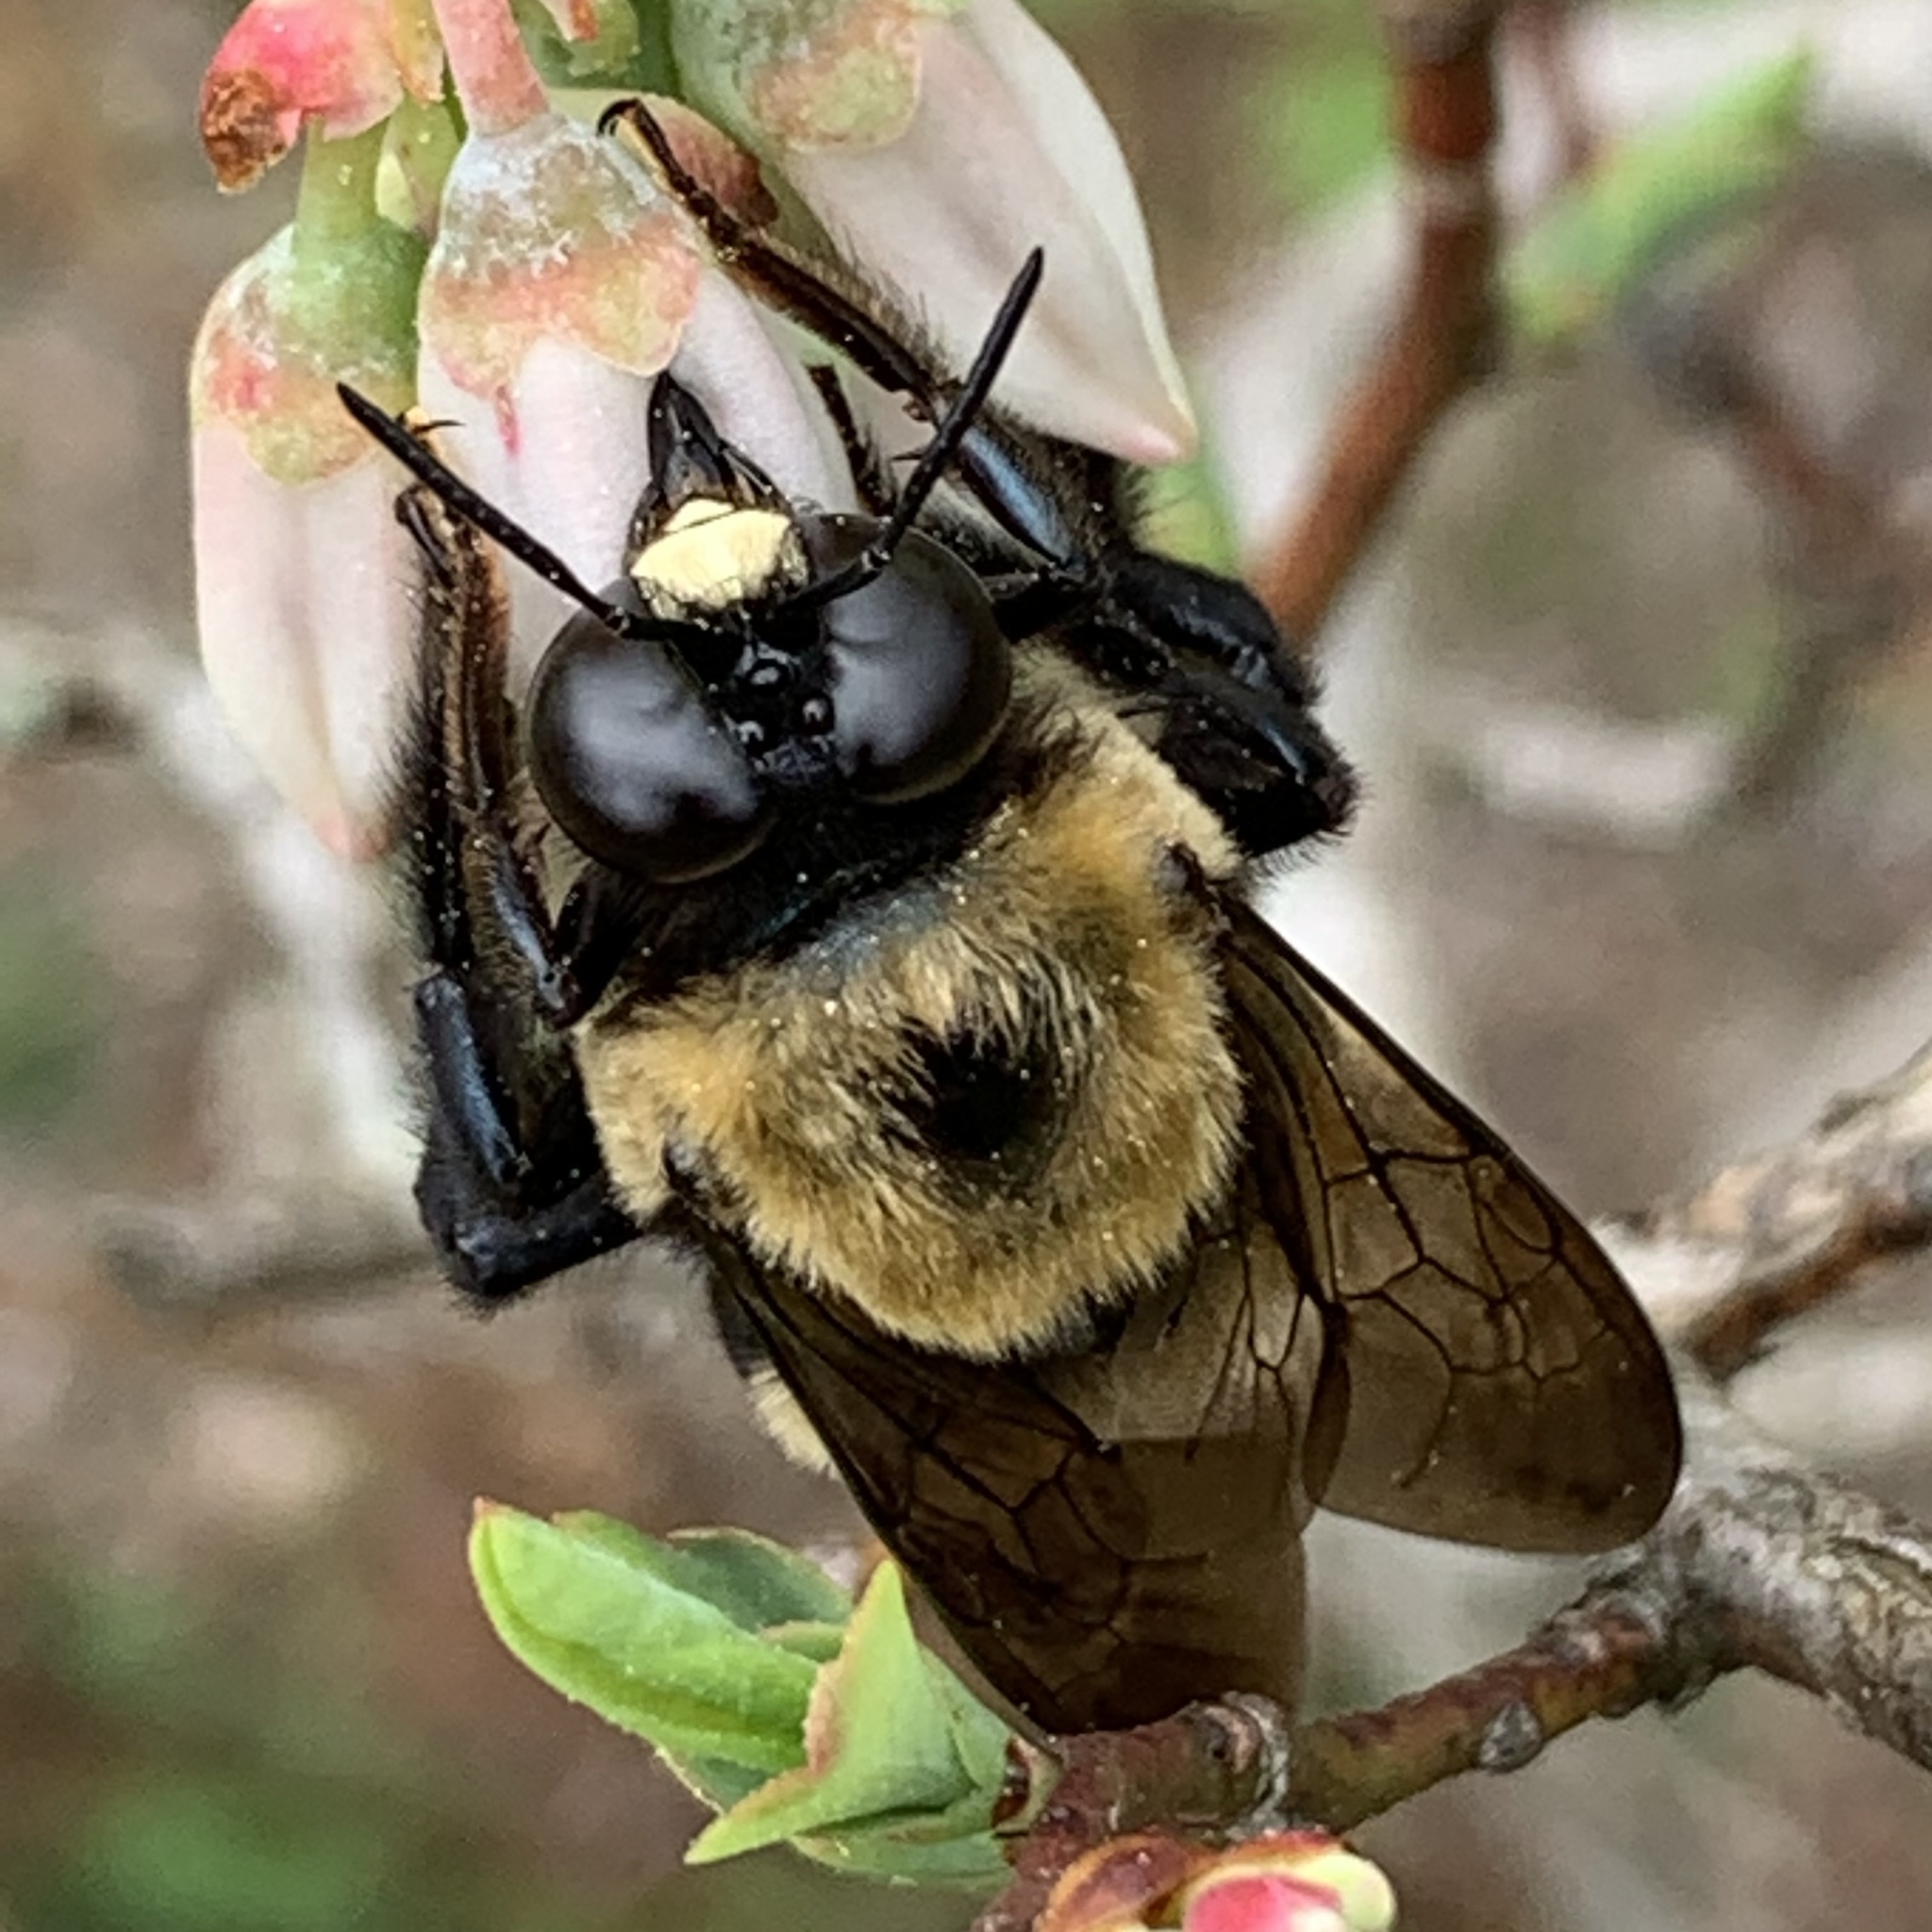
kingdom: Animalia
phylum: Arthropoda
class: Insecta
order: Hymenoptera
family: Apidae
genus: Xylocopa
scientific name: Xylocopa virginica
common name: Carpenter bee
